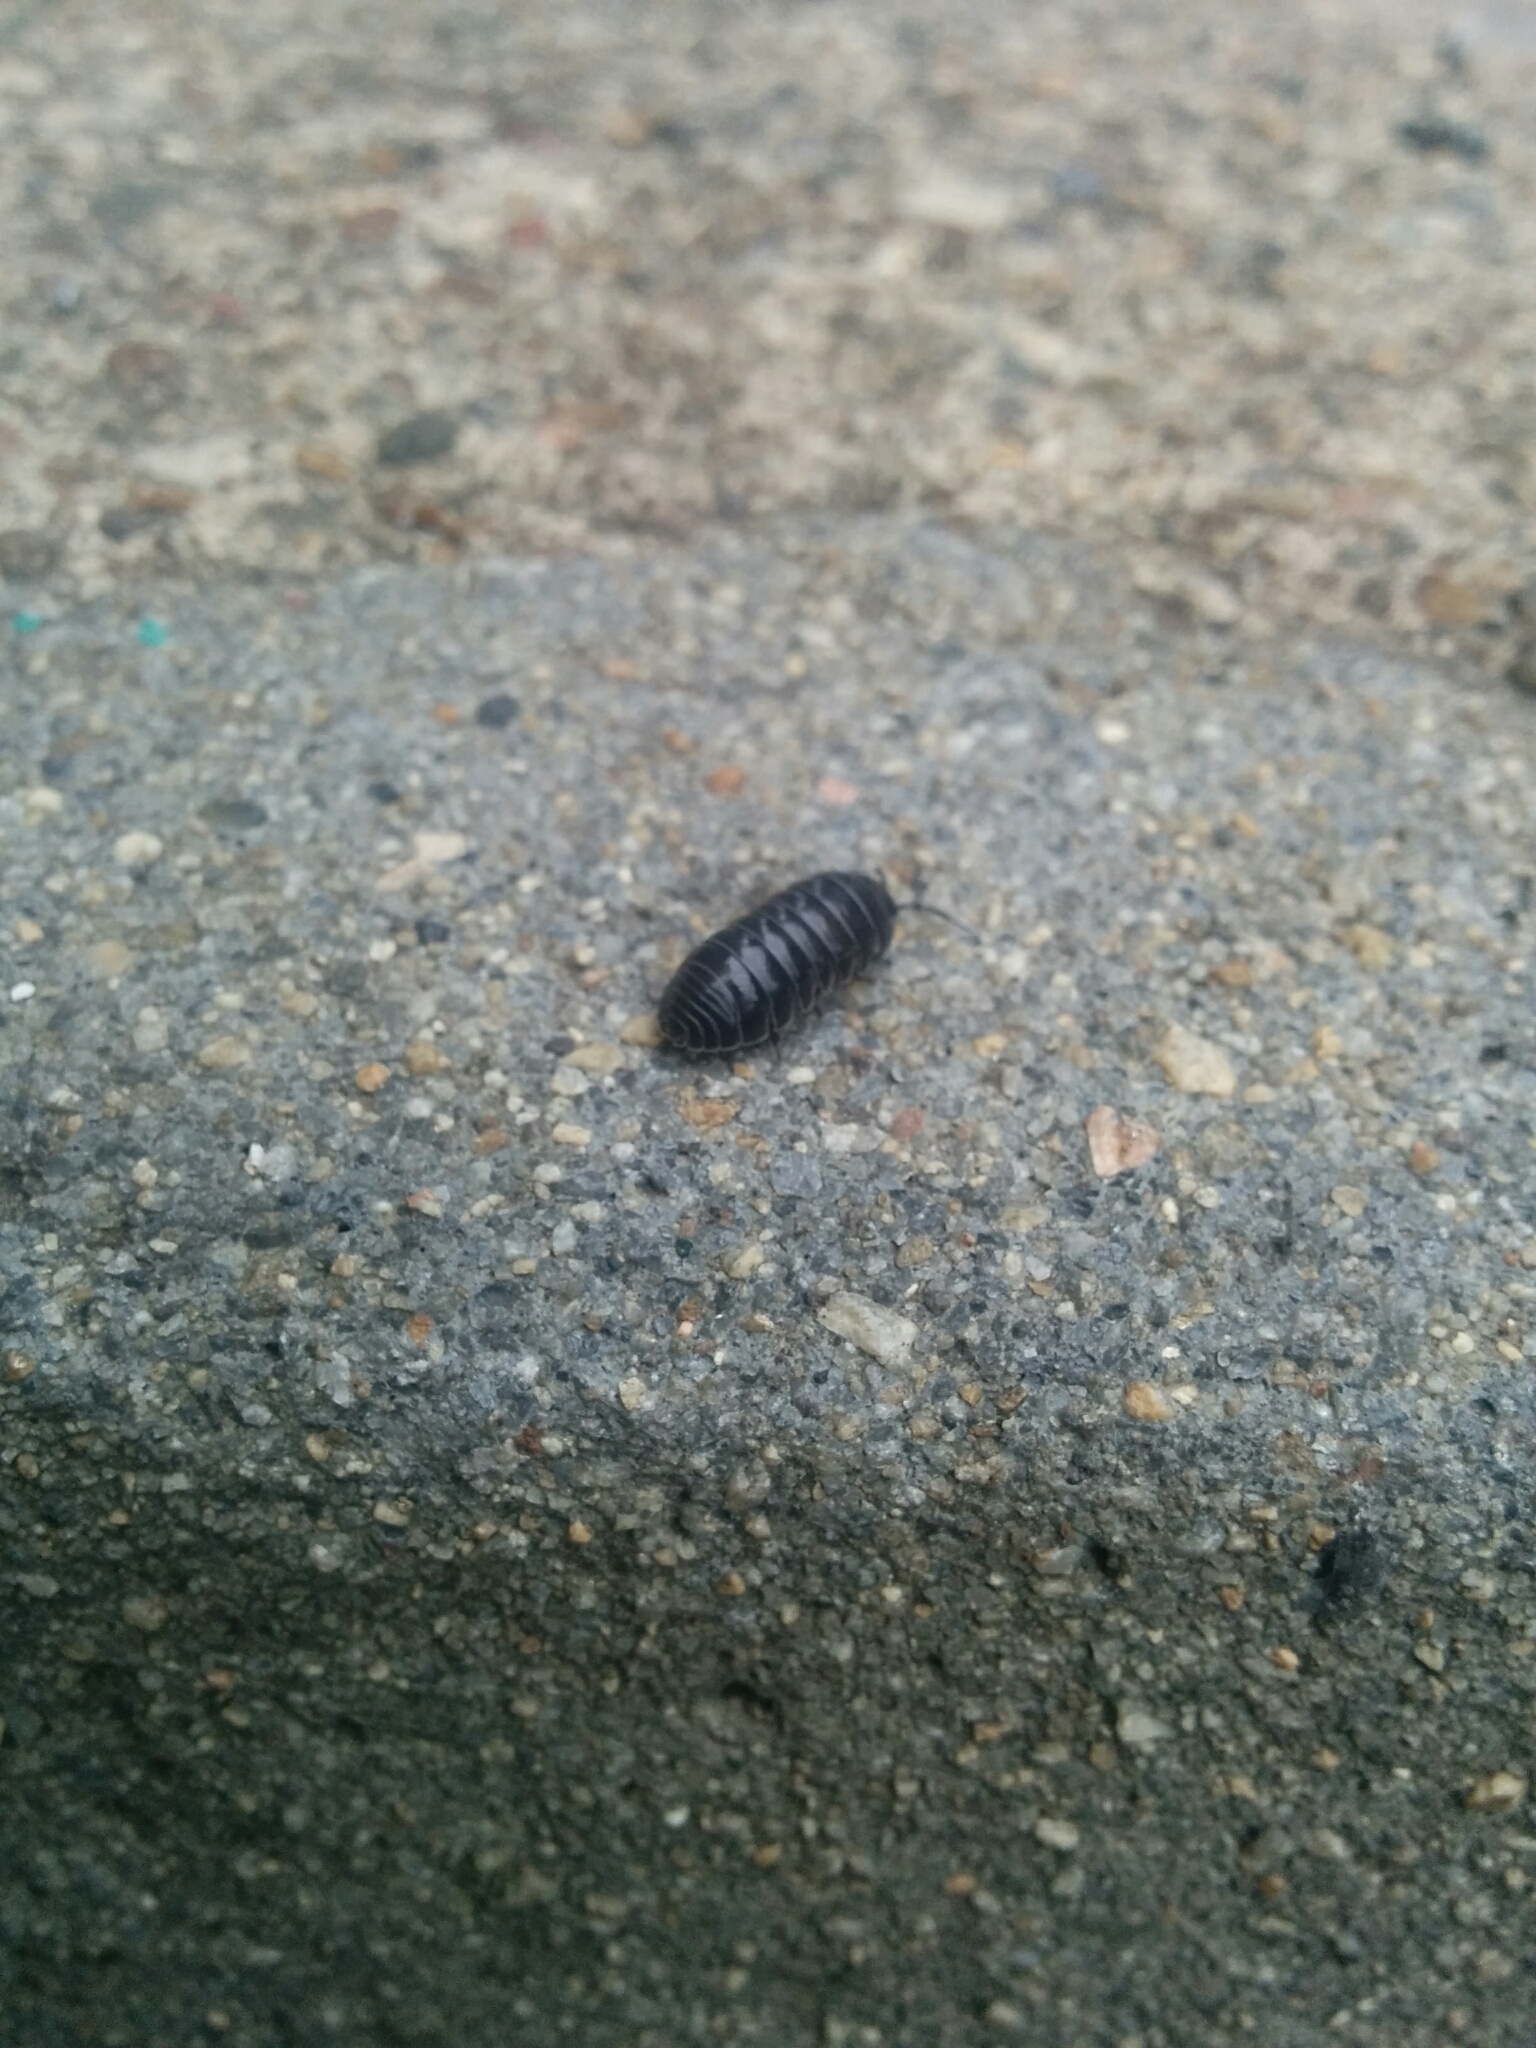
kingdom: Animalia
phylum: Arthropoda
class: Malacostraca
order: Isopoda
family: Armadillidiidae
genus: Armadillidium
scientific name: Armadillidium vulgare
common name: Common pill woodlouse
